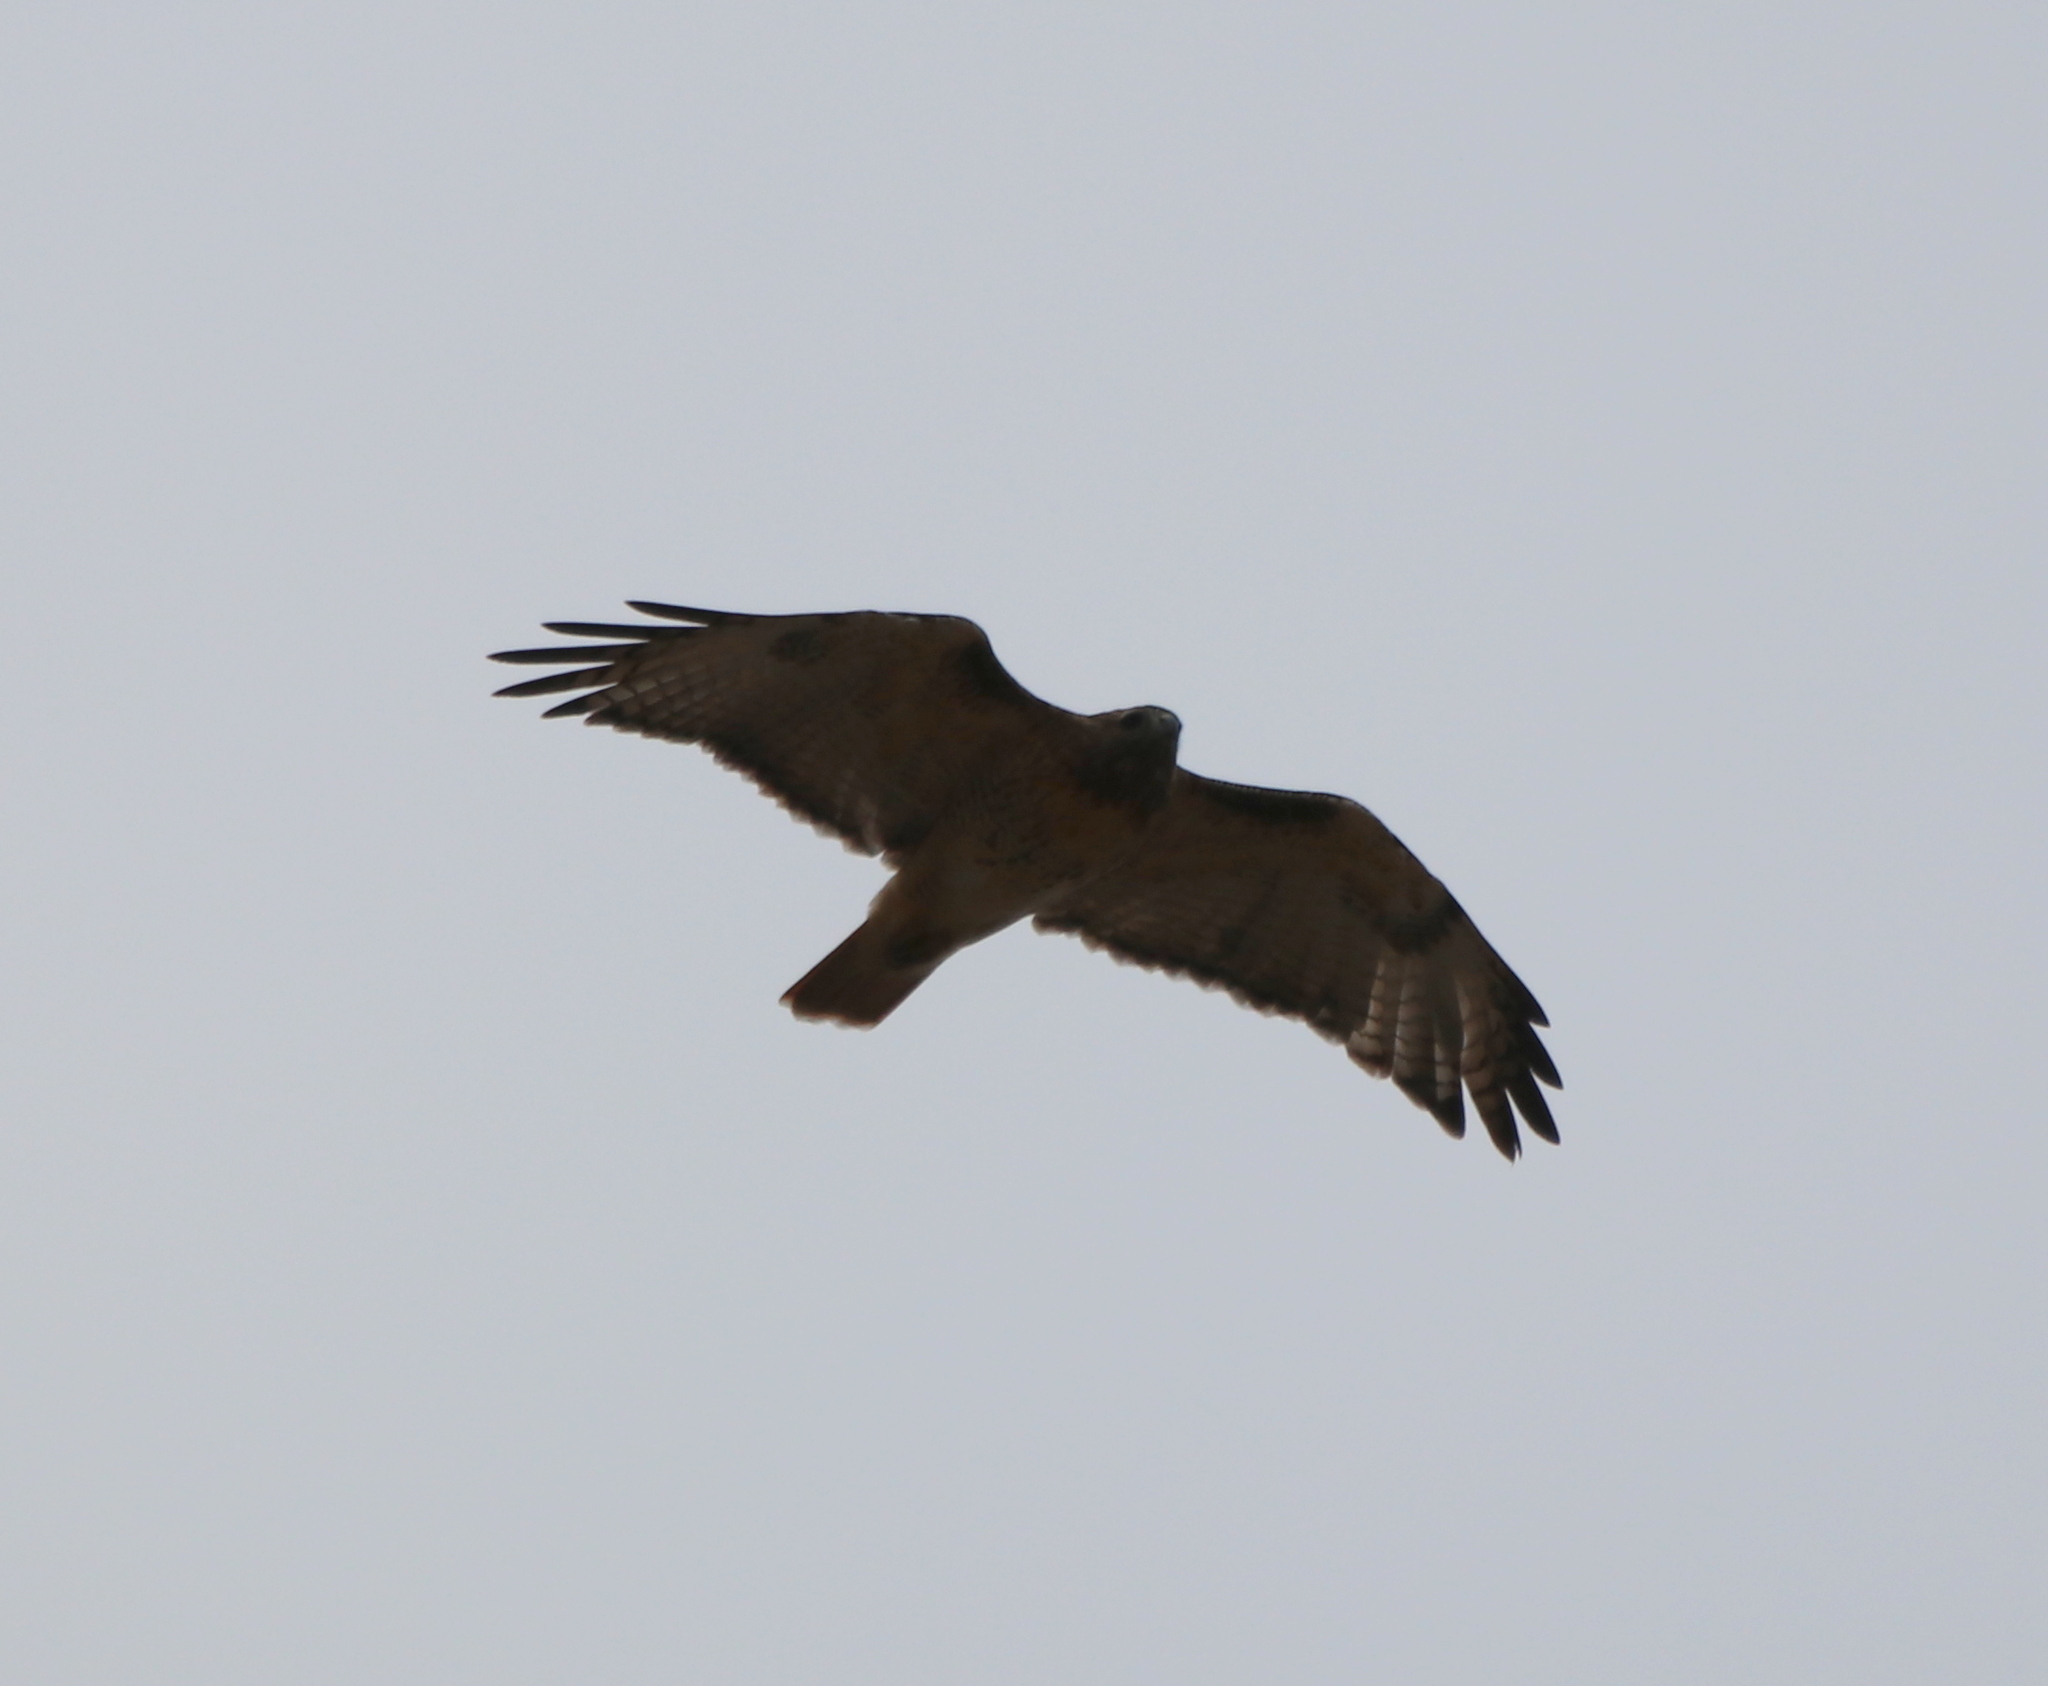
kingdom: Animalia
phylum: Chordata
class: Aves
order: Accipitriformes
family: Accipitridae
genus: Buteo
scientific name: Buteo jamaicensis
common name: Red-tailed hawk
